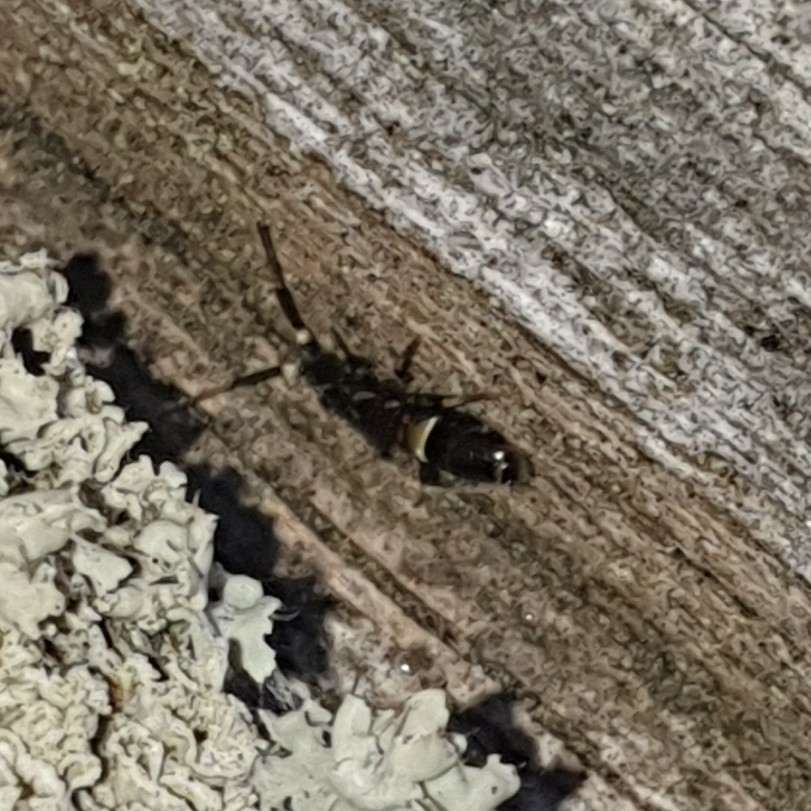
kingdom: Animalia
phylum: Arthropoda
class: Collembola
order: Entomobryomorpha
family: Orchesellidae
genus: Orchesella
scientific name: Orchesella cincta
